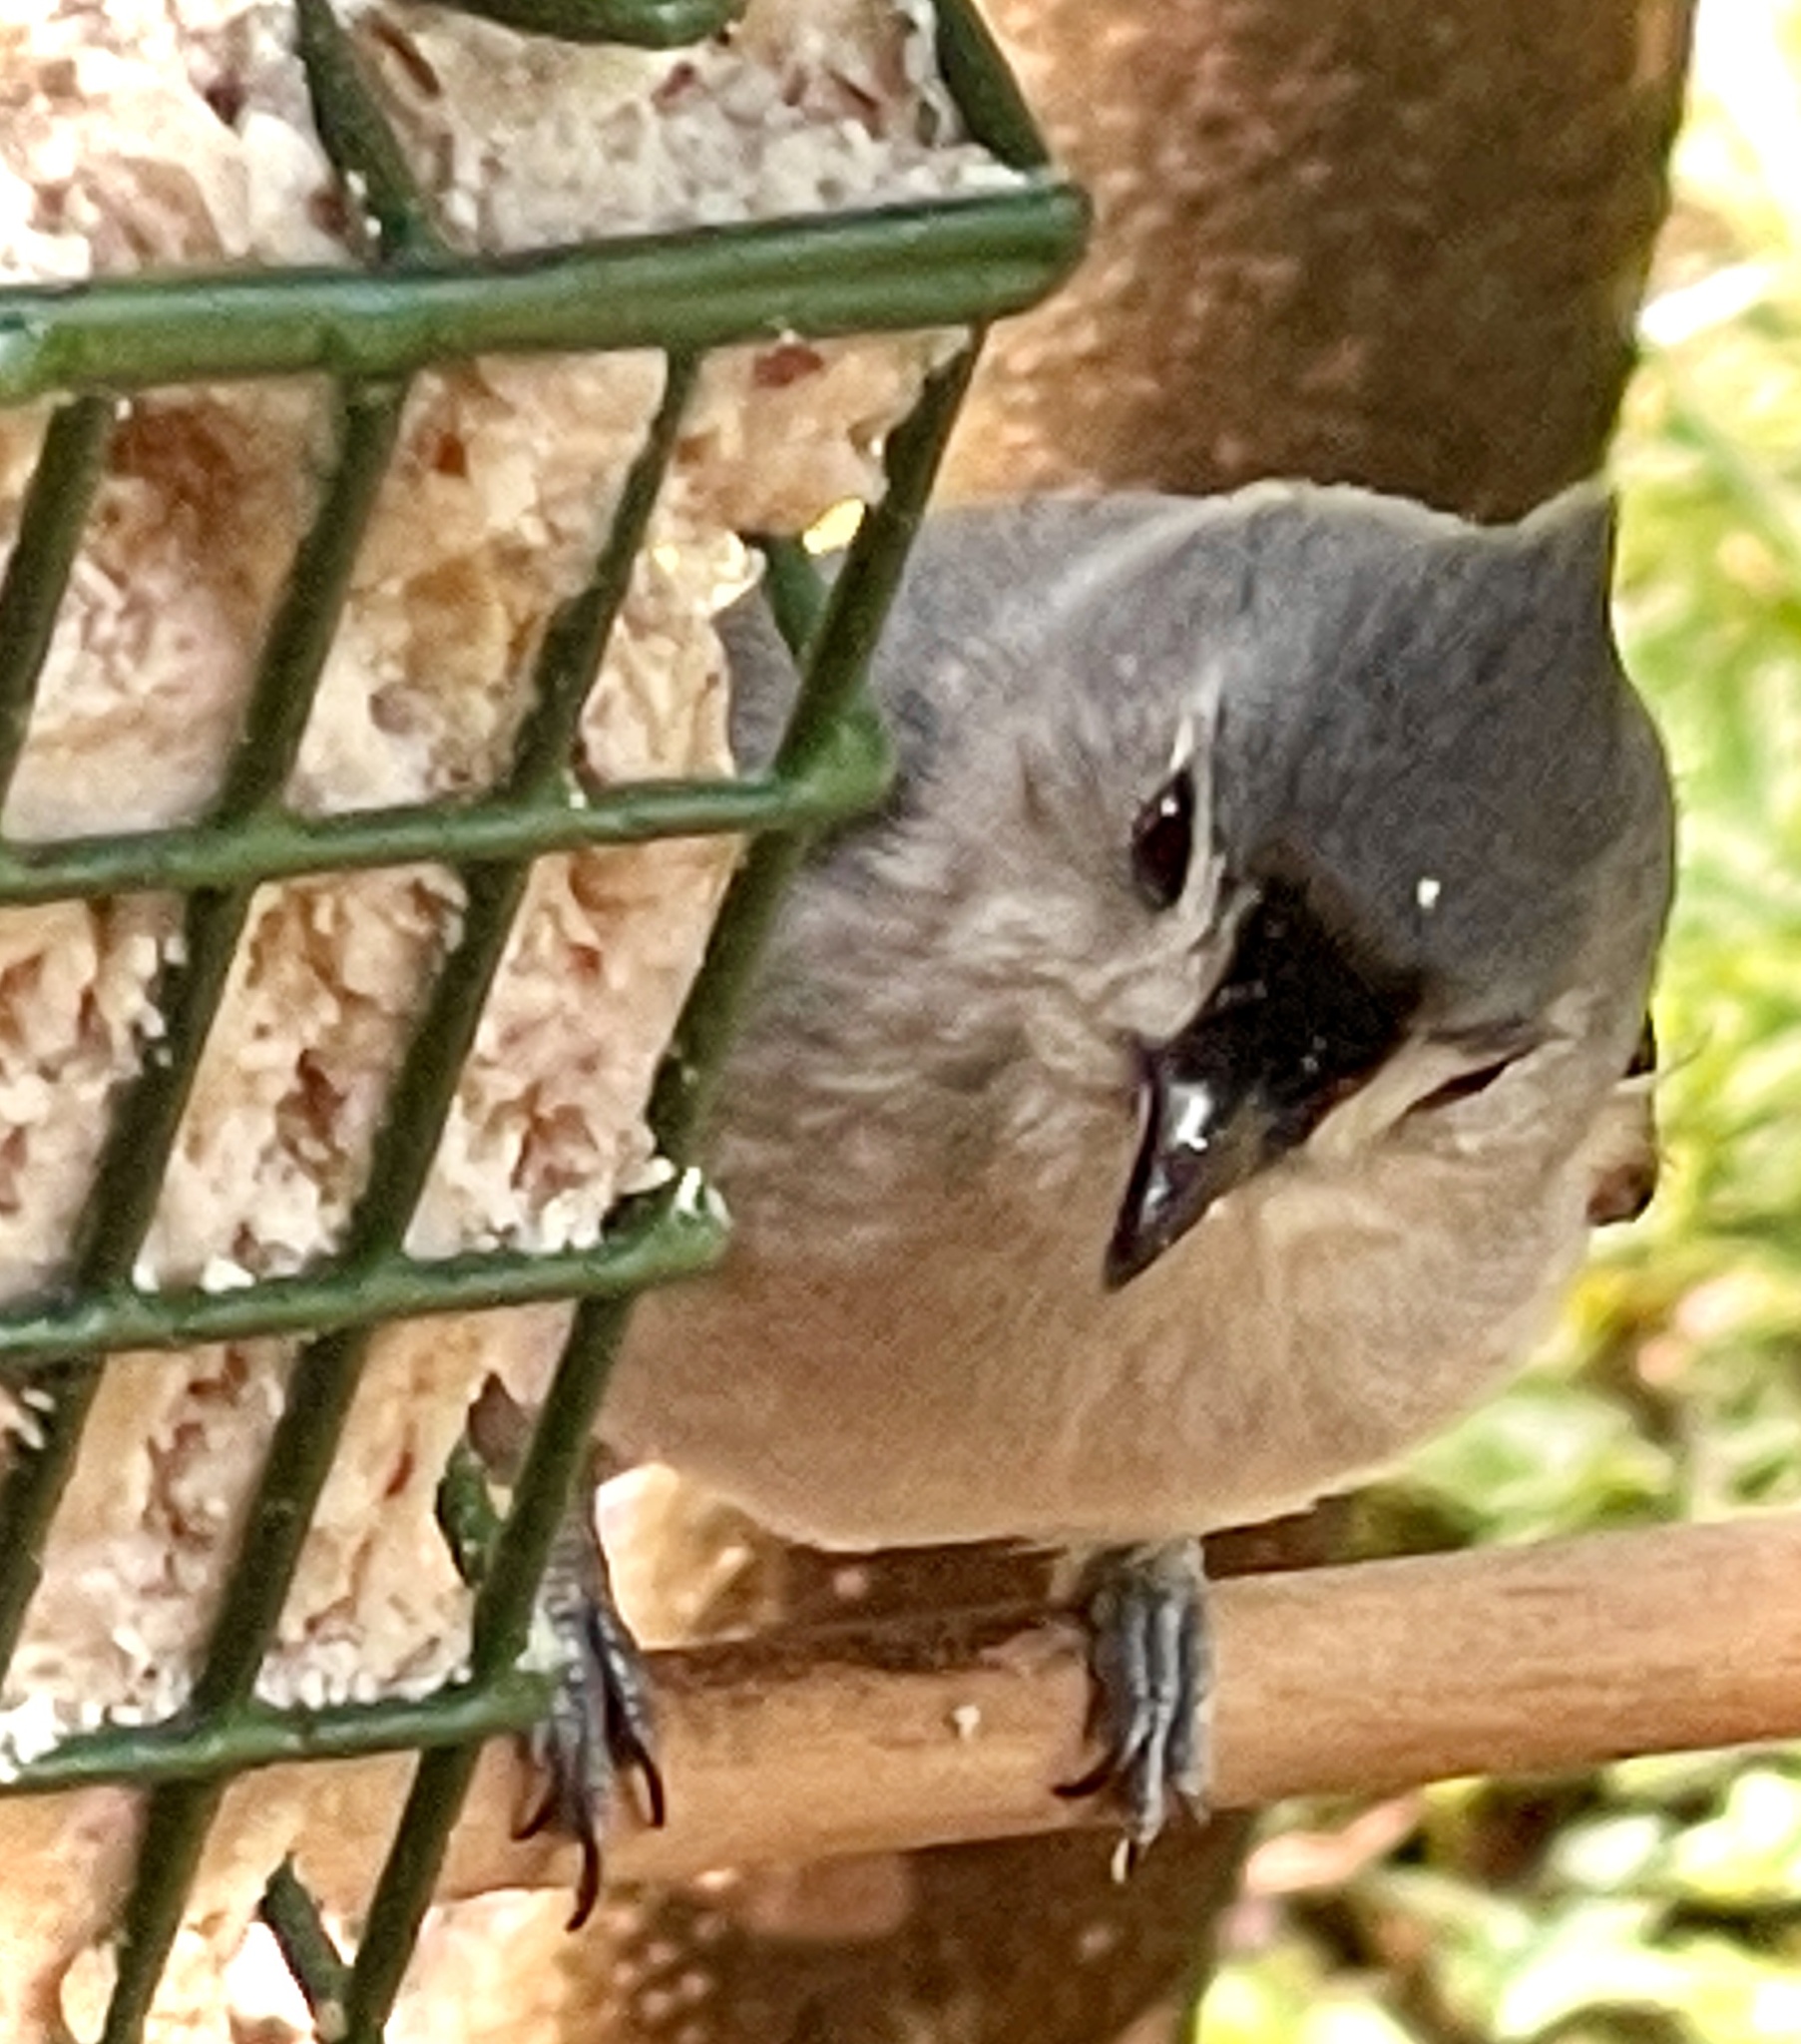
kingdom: Animalia
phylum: Chordata
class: Aves
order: Passeriformes
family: Paridae
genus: Baeolophus
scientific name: Baeolophus bicolor
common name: Tufted titmouse
